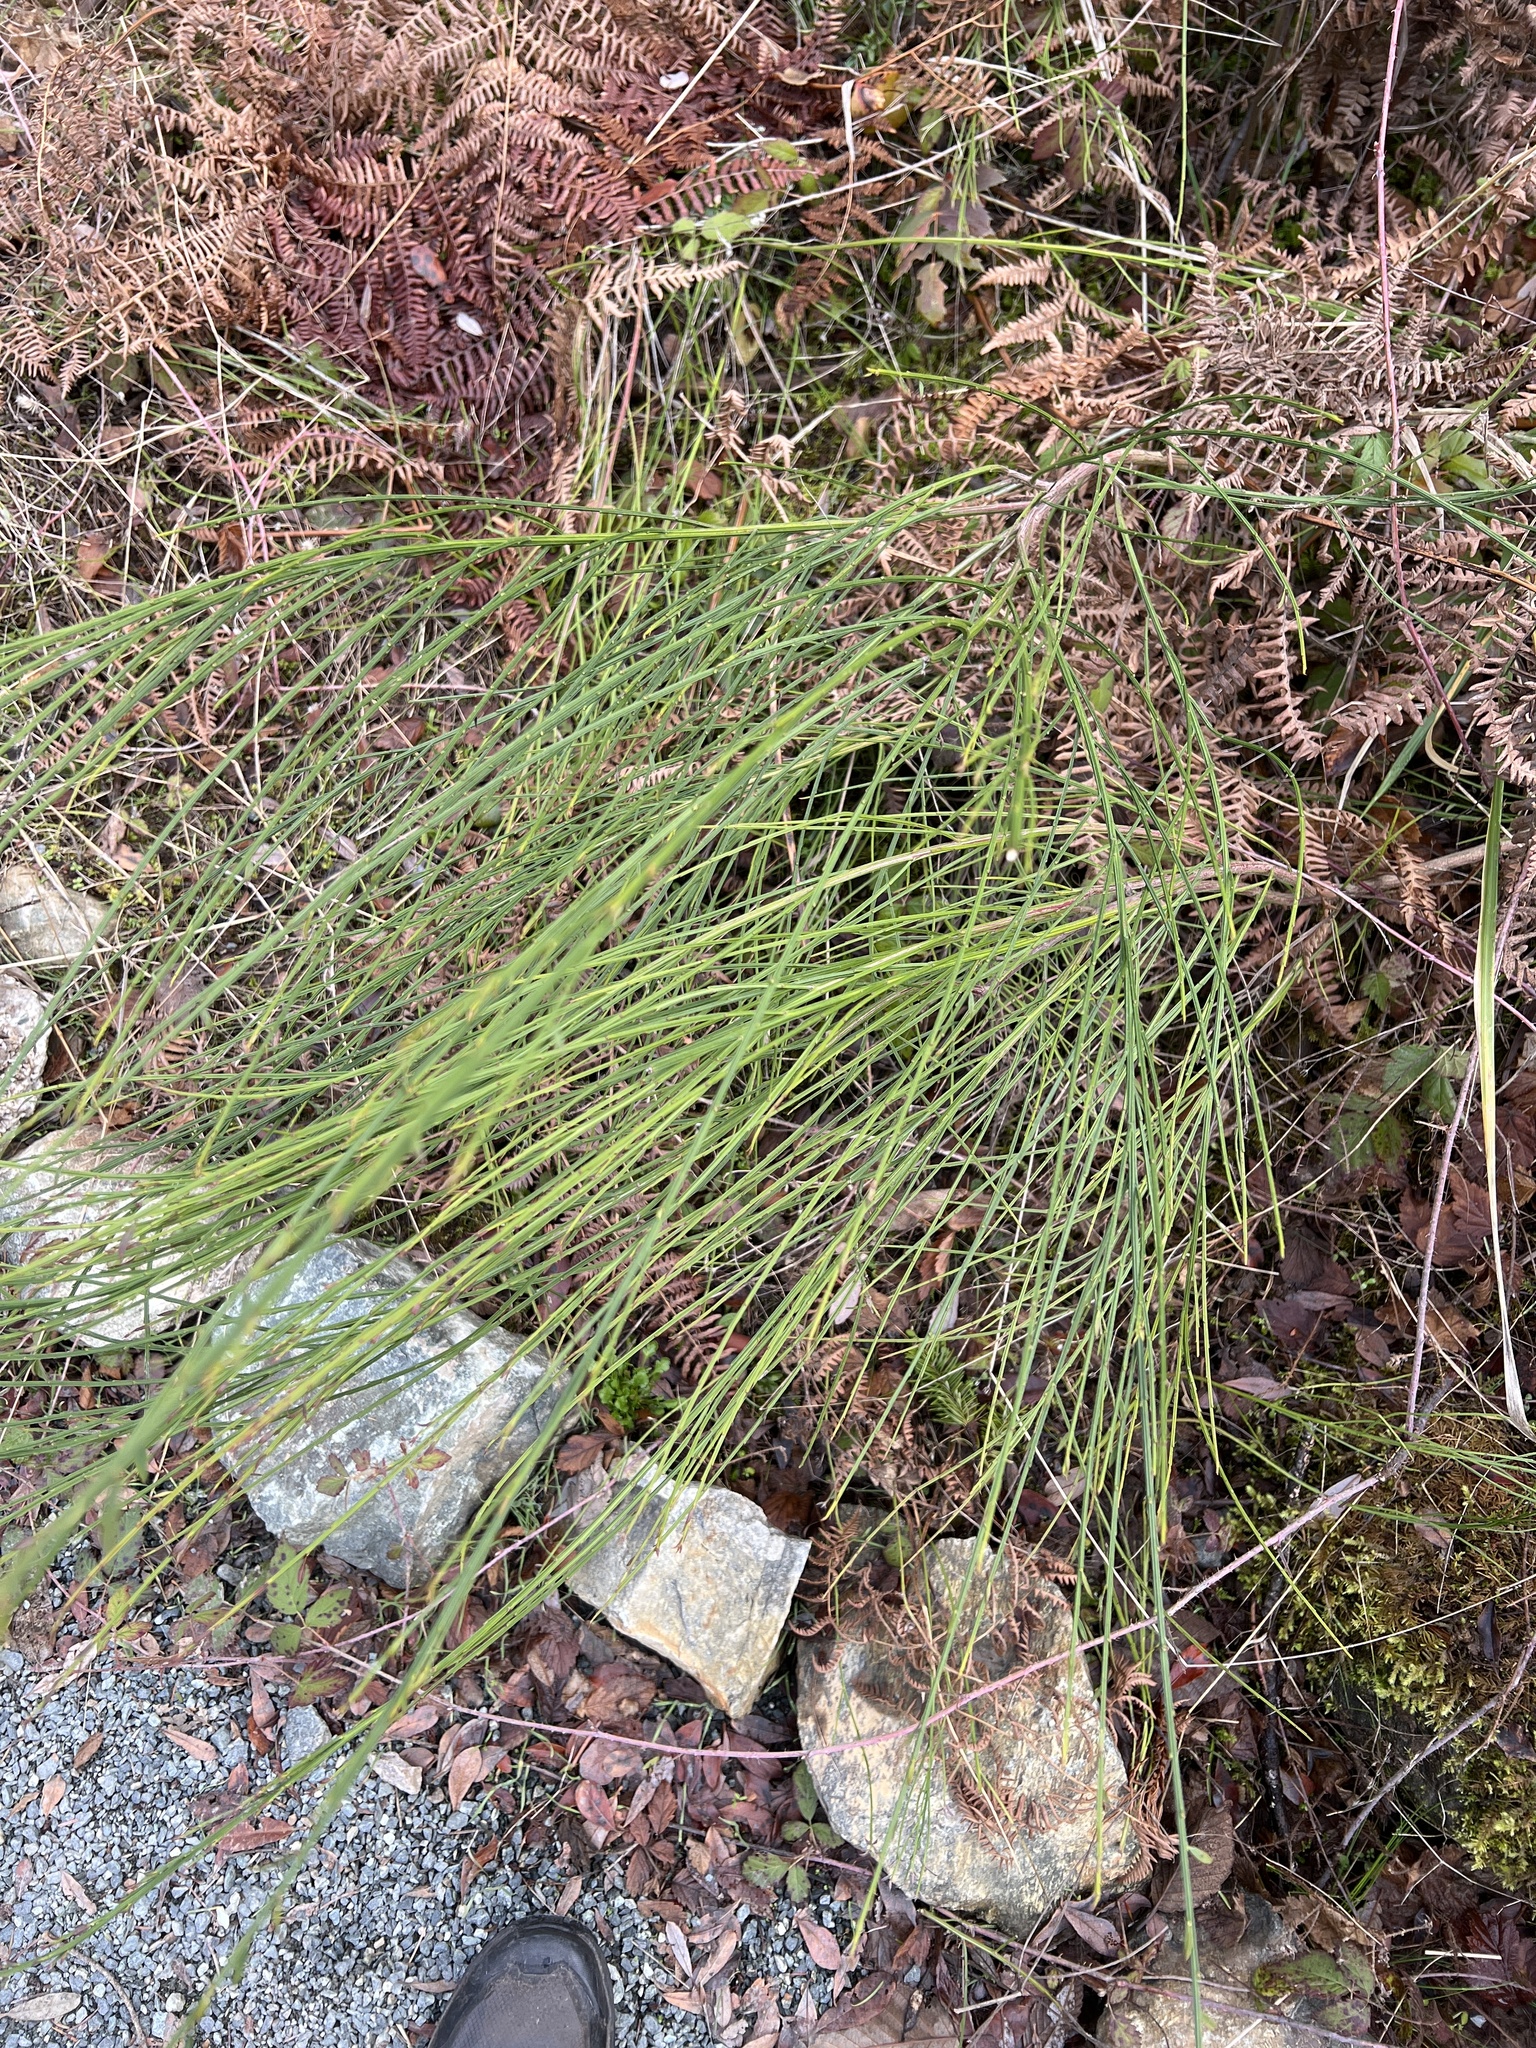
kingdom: Plantae
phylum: Tracheophyta
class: Magnoliopsida
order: Fabales
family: Fabaceae
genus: Cytisus
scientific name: Cytisus scoparius
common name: Scotch broom
